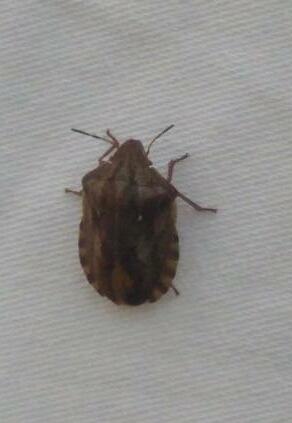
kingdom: Animalia
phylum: Arthropoda
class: Insecta
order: Hemiptera
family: Scutelleridae
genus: Eurygaster
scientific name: Eurygaster testudinaria
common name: Tortoise bug
